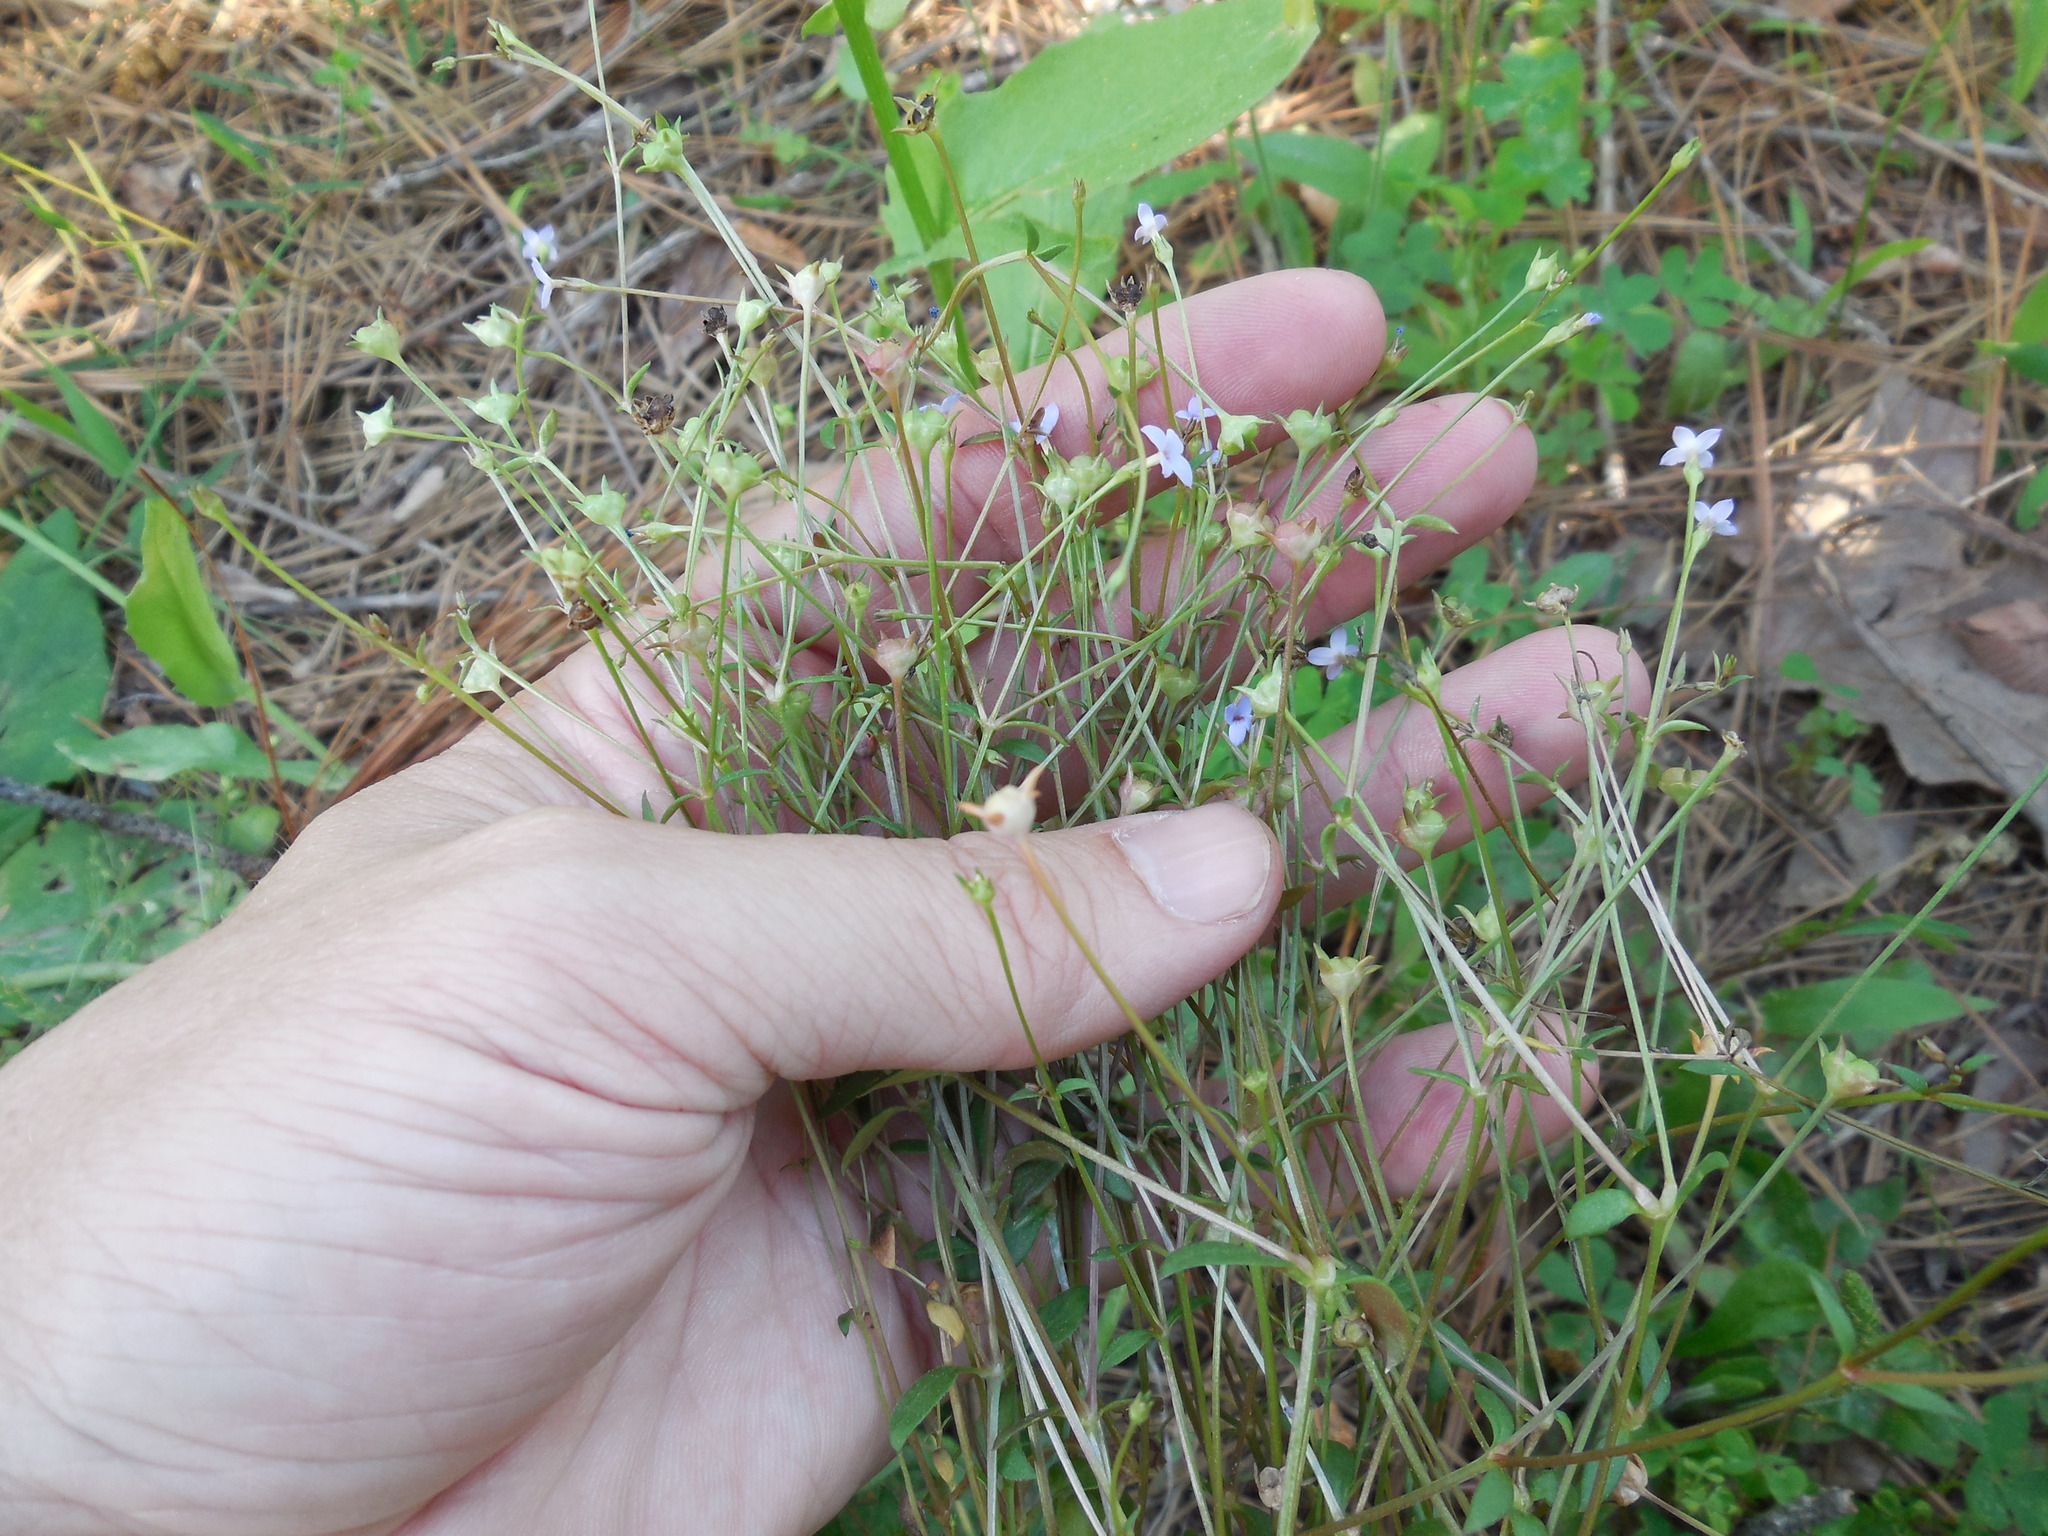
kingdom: Plantae
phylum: Tracheophyta
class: Magnoliopsida
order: Gentianales
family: Rubiaceae
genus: Houstonia
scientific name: Houstonia pusilla
